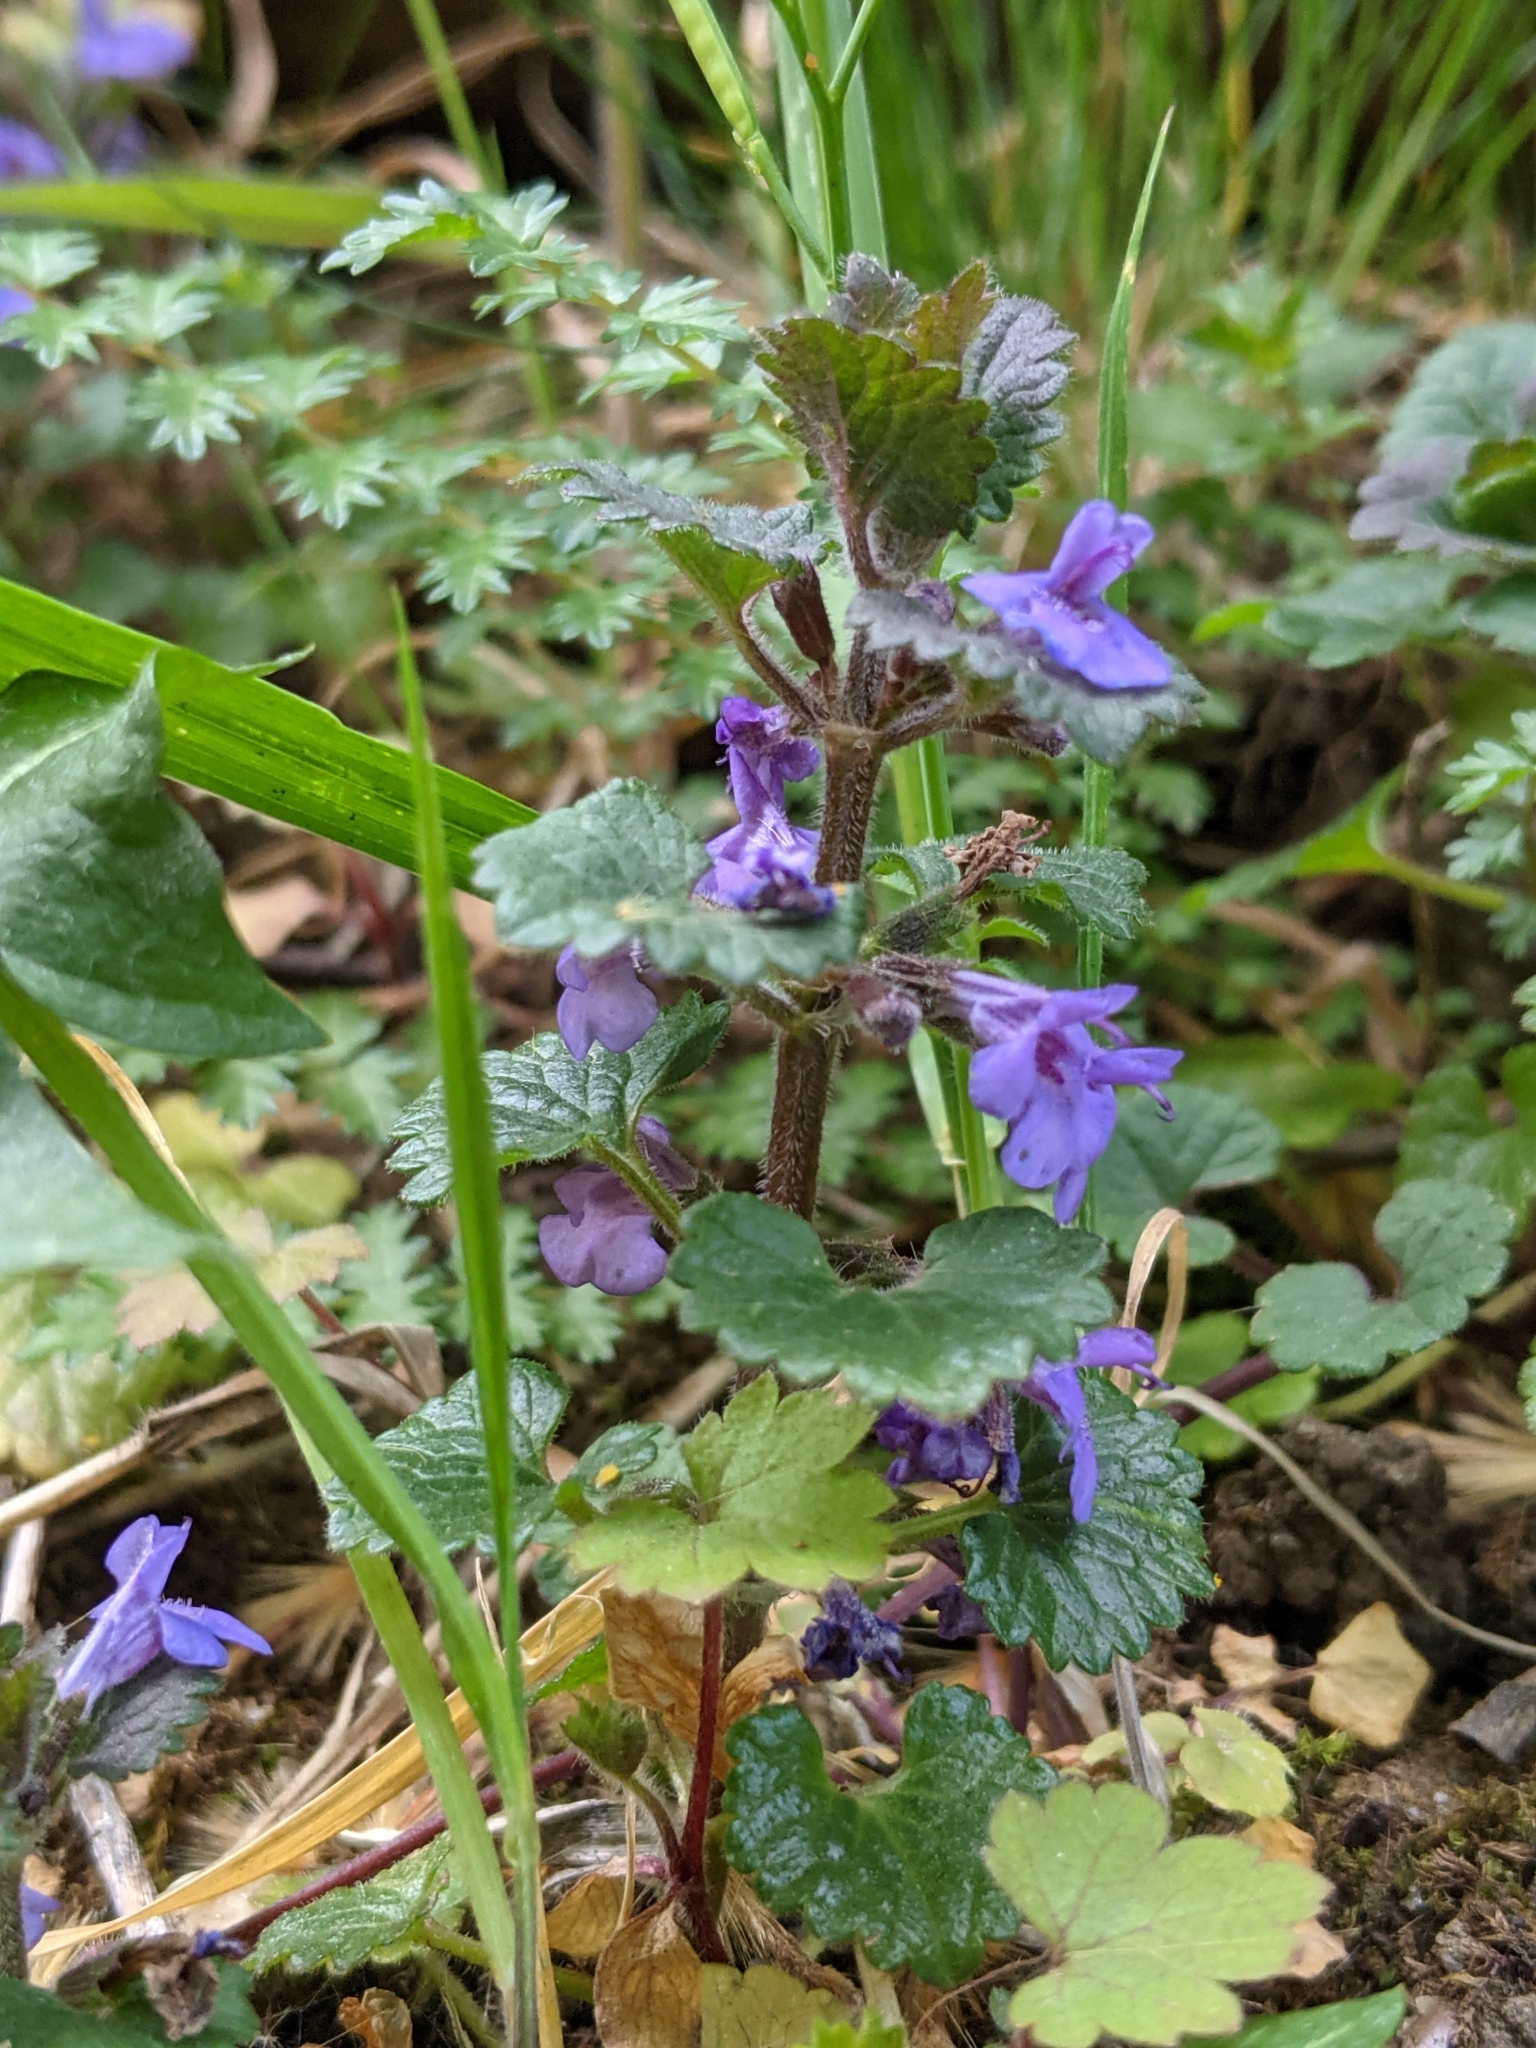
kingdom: Plantae
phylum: Tracheophyta
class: Magnoliopsida
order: Lamiales
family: Lamiaceae
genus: Glechoma
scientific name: Glechoma hederacea
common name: Ground ivy
